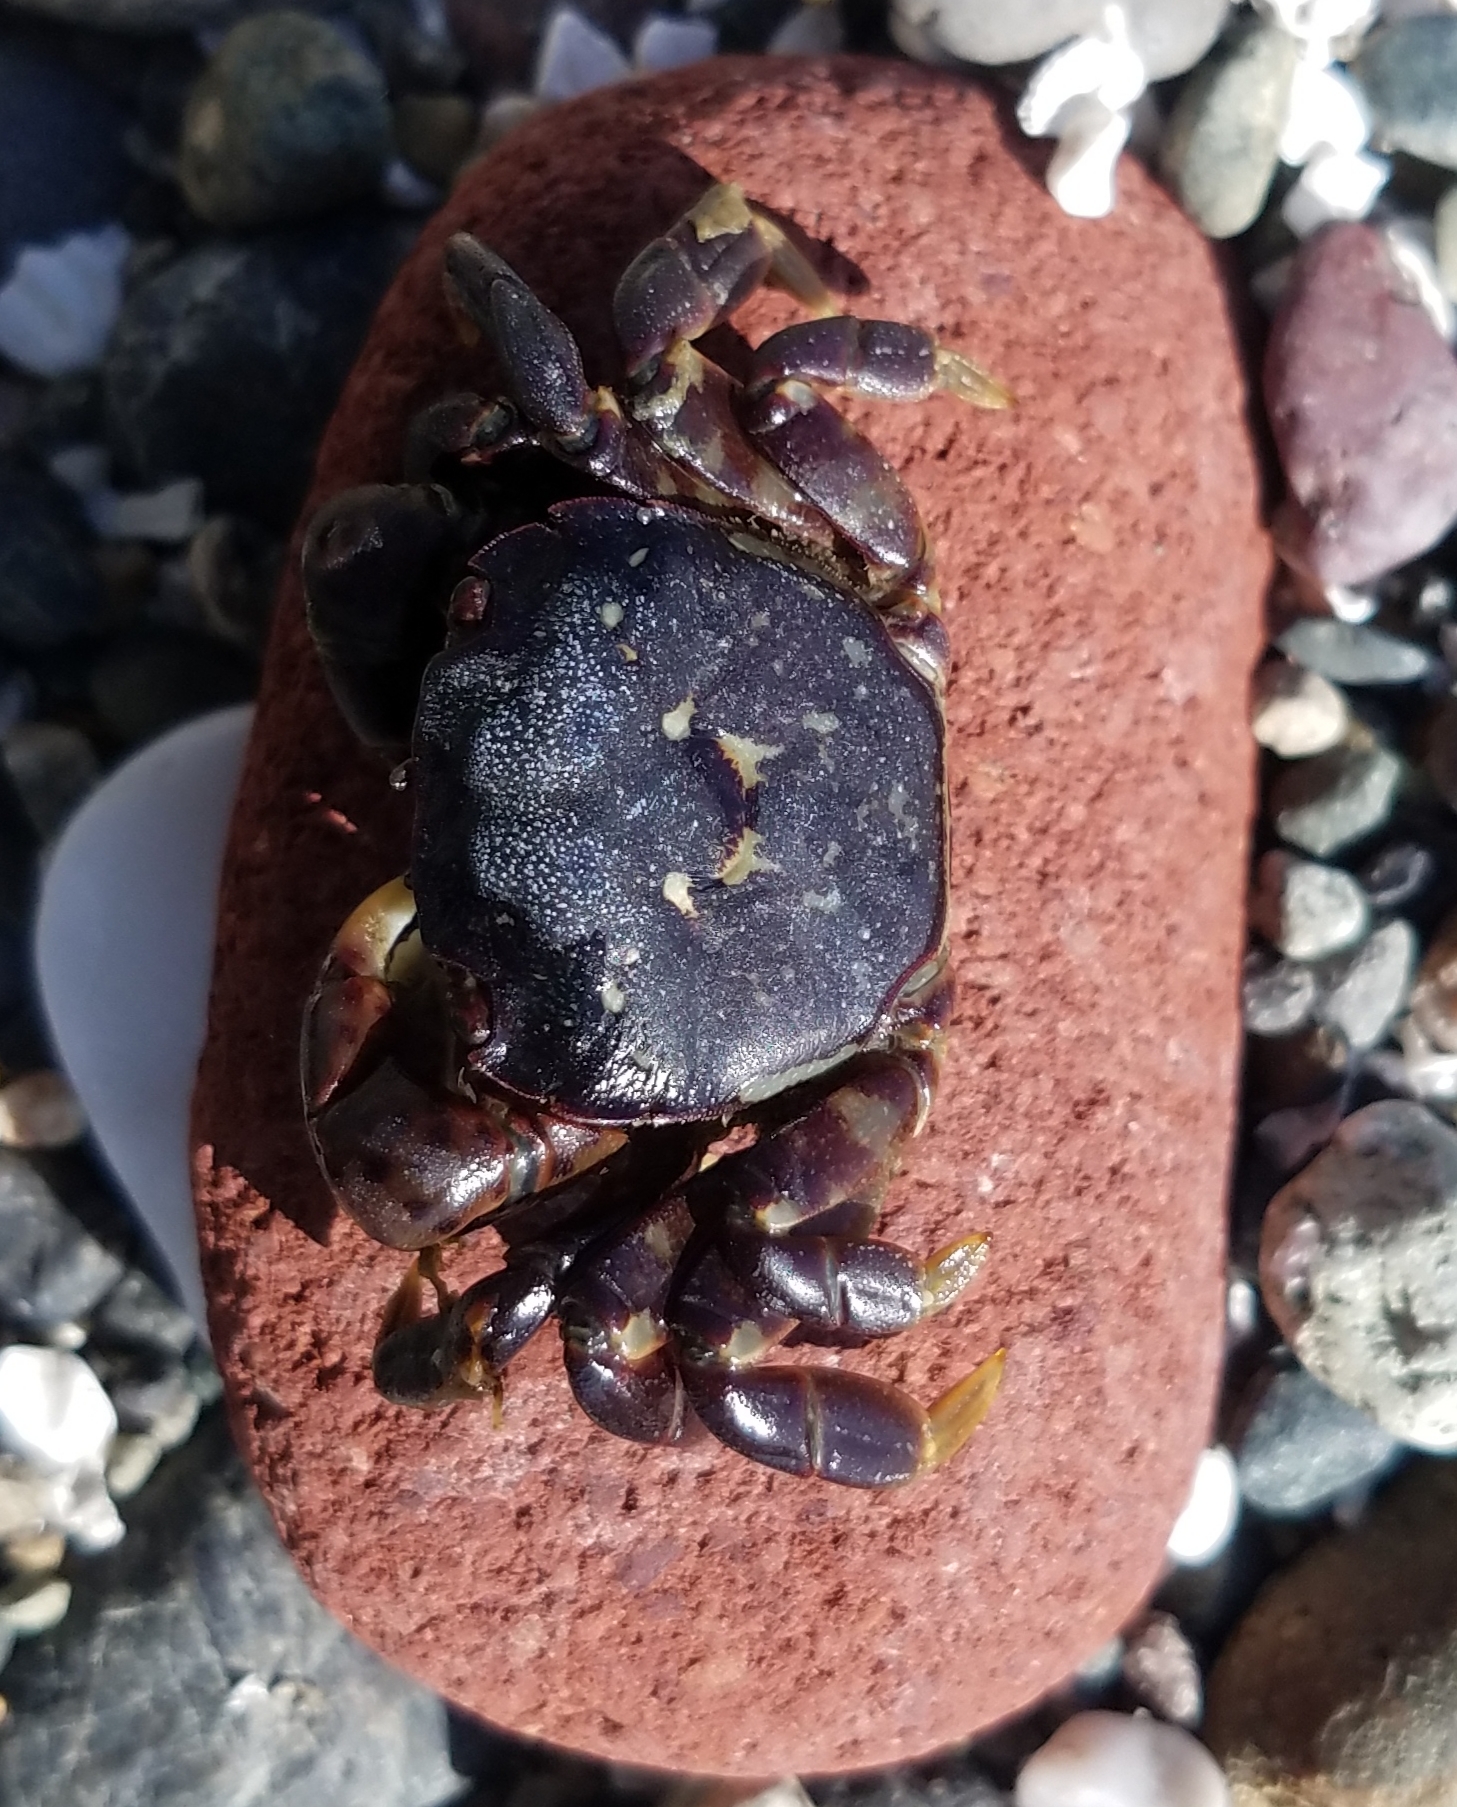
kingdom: Animalia
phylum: Arthropoda
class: Malacostraca
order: Decapoda
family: Varunidae
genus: Hemigrapsus
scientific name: Hemigrapsus nudus
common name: Purple shore crab
